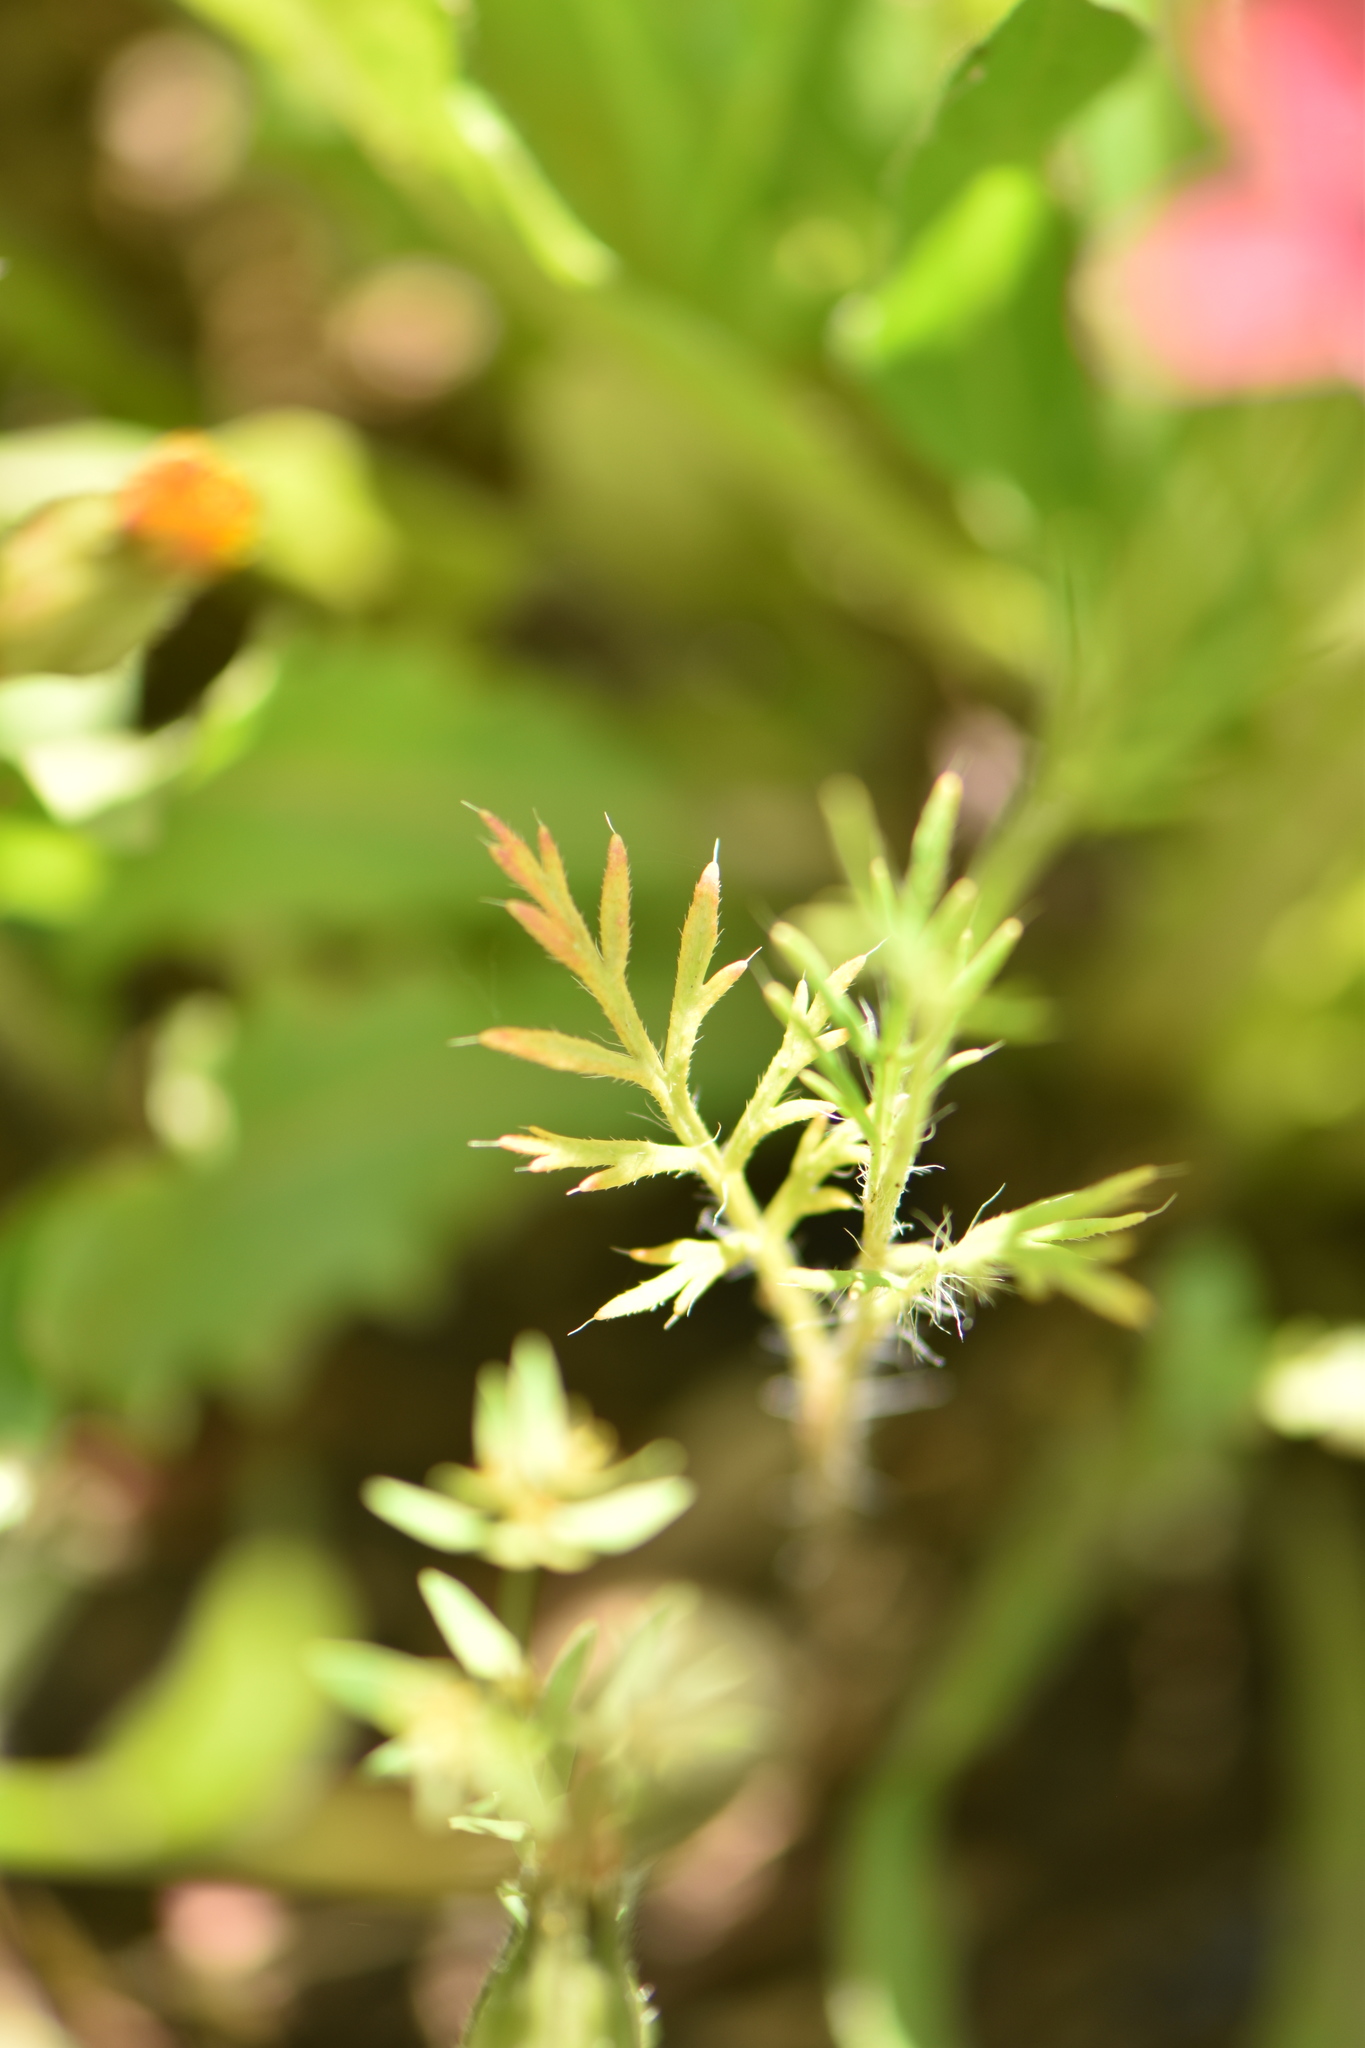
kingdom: Plantae
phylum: Tracheophyta
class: Magnoliopsida
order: Ranunculales
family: Papaveraceae
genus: Roemeria
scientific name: Roemeria hispida
